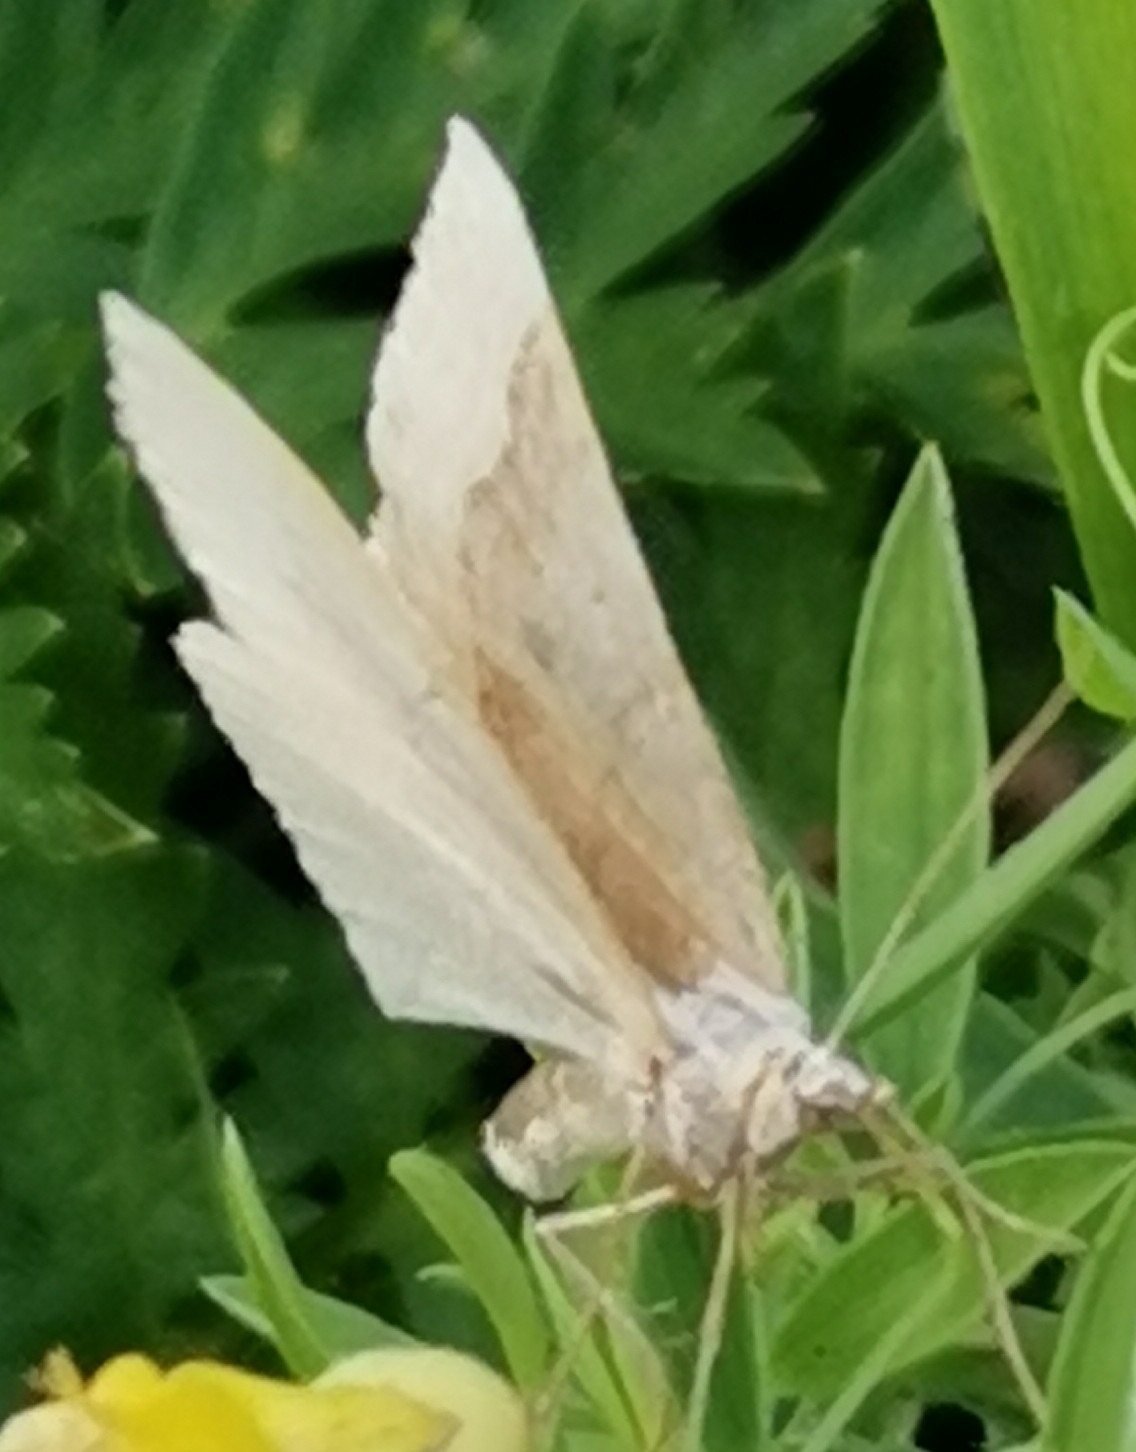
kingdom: Animalia
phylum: Arthropoda
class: Insecta
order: Lepidoptera
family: Geometridae
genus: Scotopteryx
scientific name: Scotopteryx chenopodiata
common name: Shaded broad-bar
